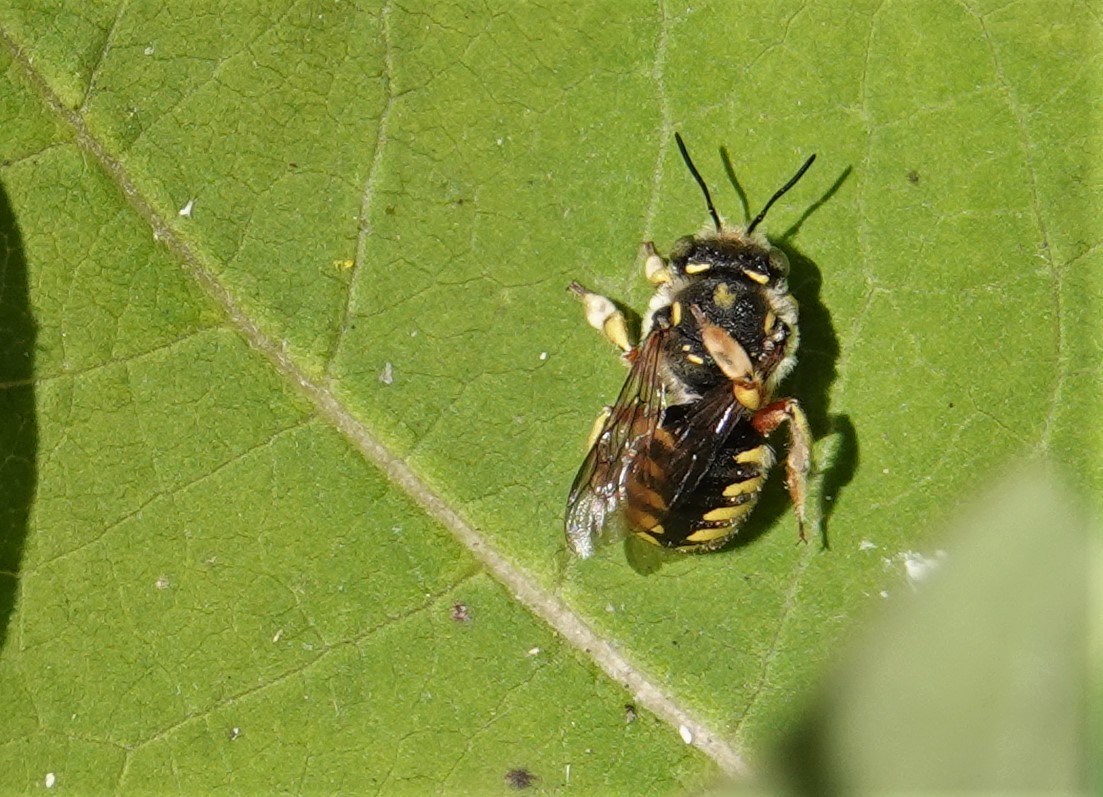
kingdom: Animalia
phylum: Arthropoda
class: Insecta
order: Hymenoptera
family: Megachilidae
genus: Anthidium
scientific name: Anthidium manicatum
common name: Wool carder bee
